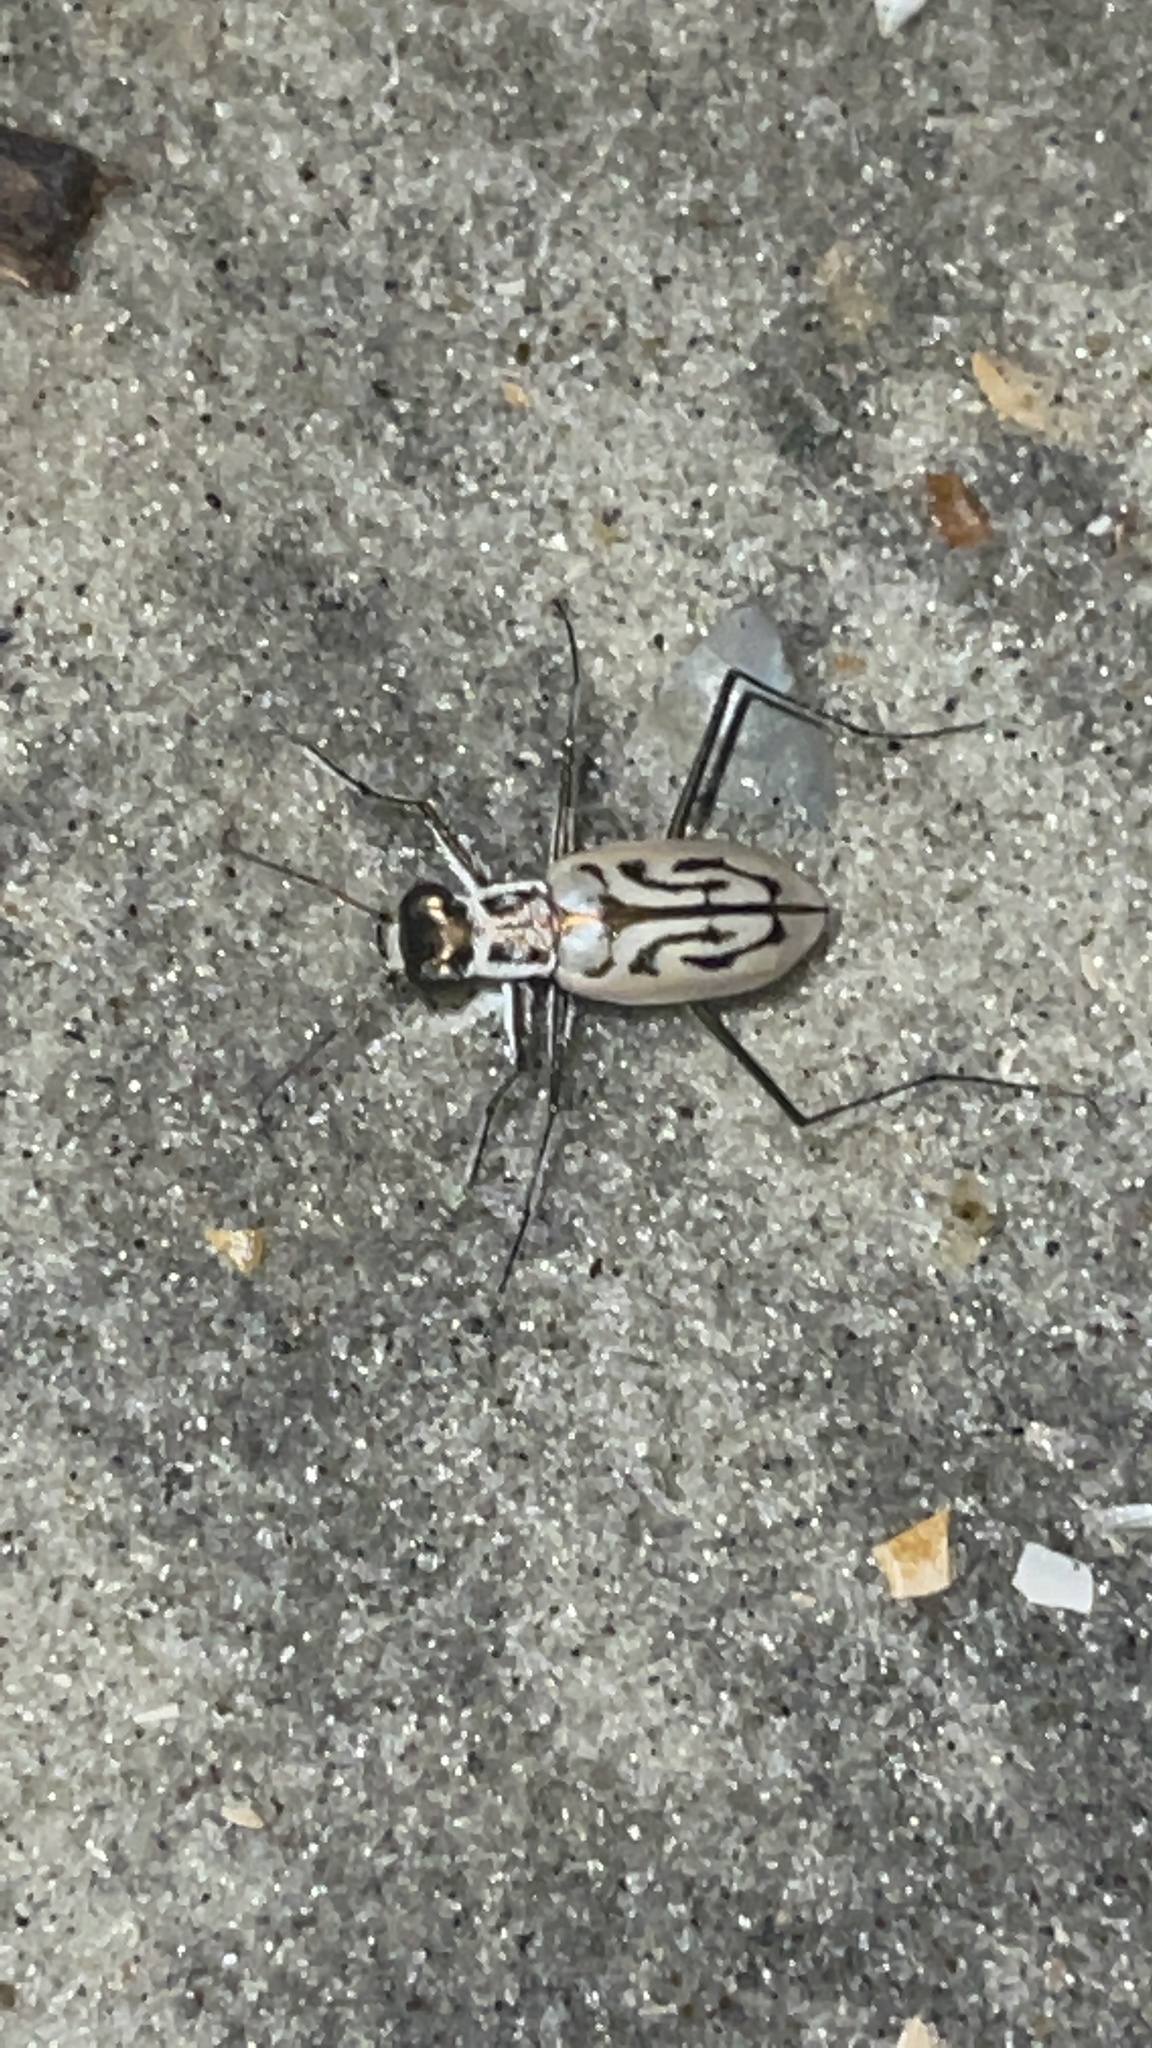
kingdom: Animalia
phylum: Arthropoda
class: Insecta
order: Coleoptera
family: Carabidae
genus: Habroscelimorpha
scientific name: Habroscelimorpha dorsalis
